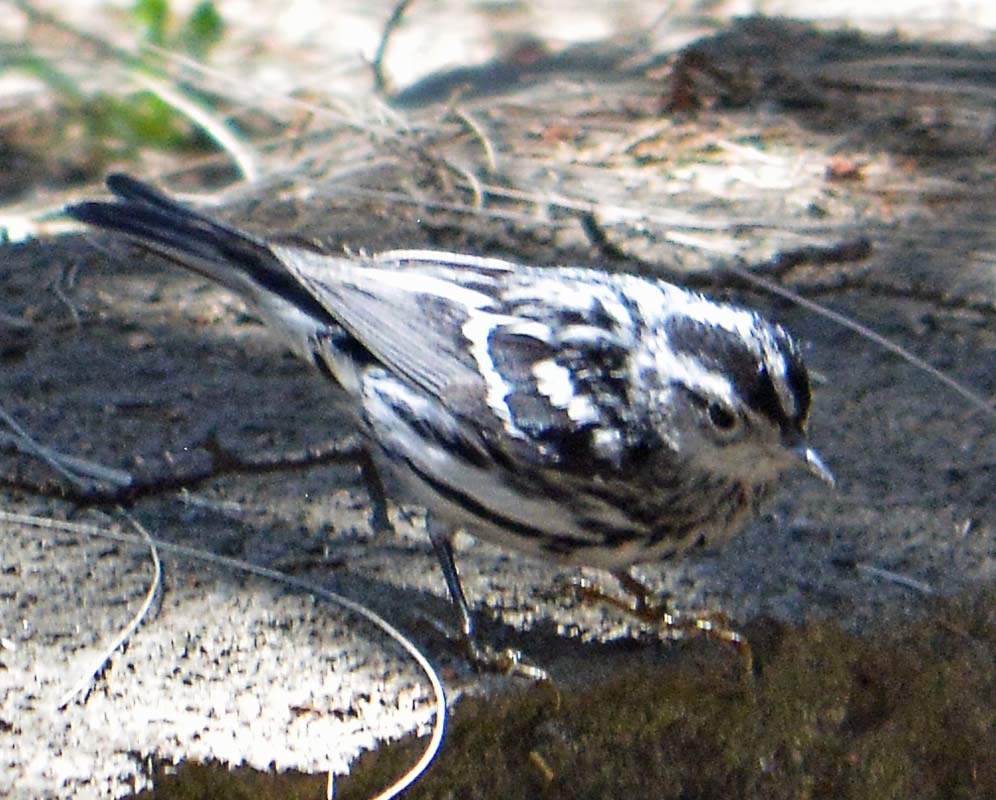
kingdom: Animalia
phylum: Chordata
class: Aves
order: Passeriformes
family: Parulidae
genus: Mniotilta
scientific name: Mniotilta varia
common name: Black-and-white warbler
